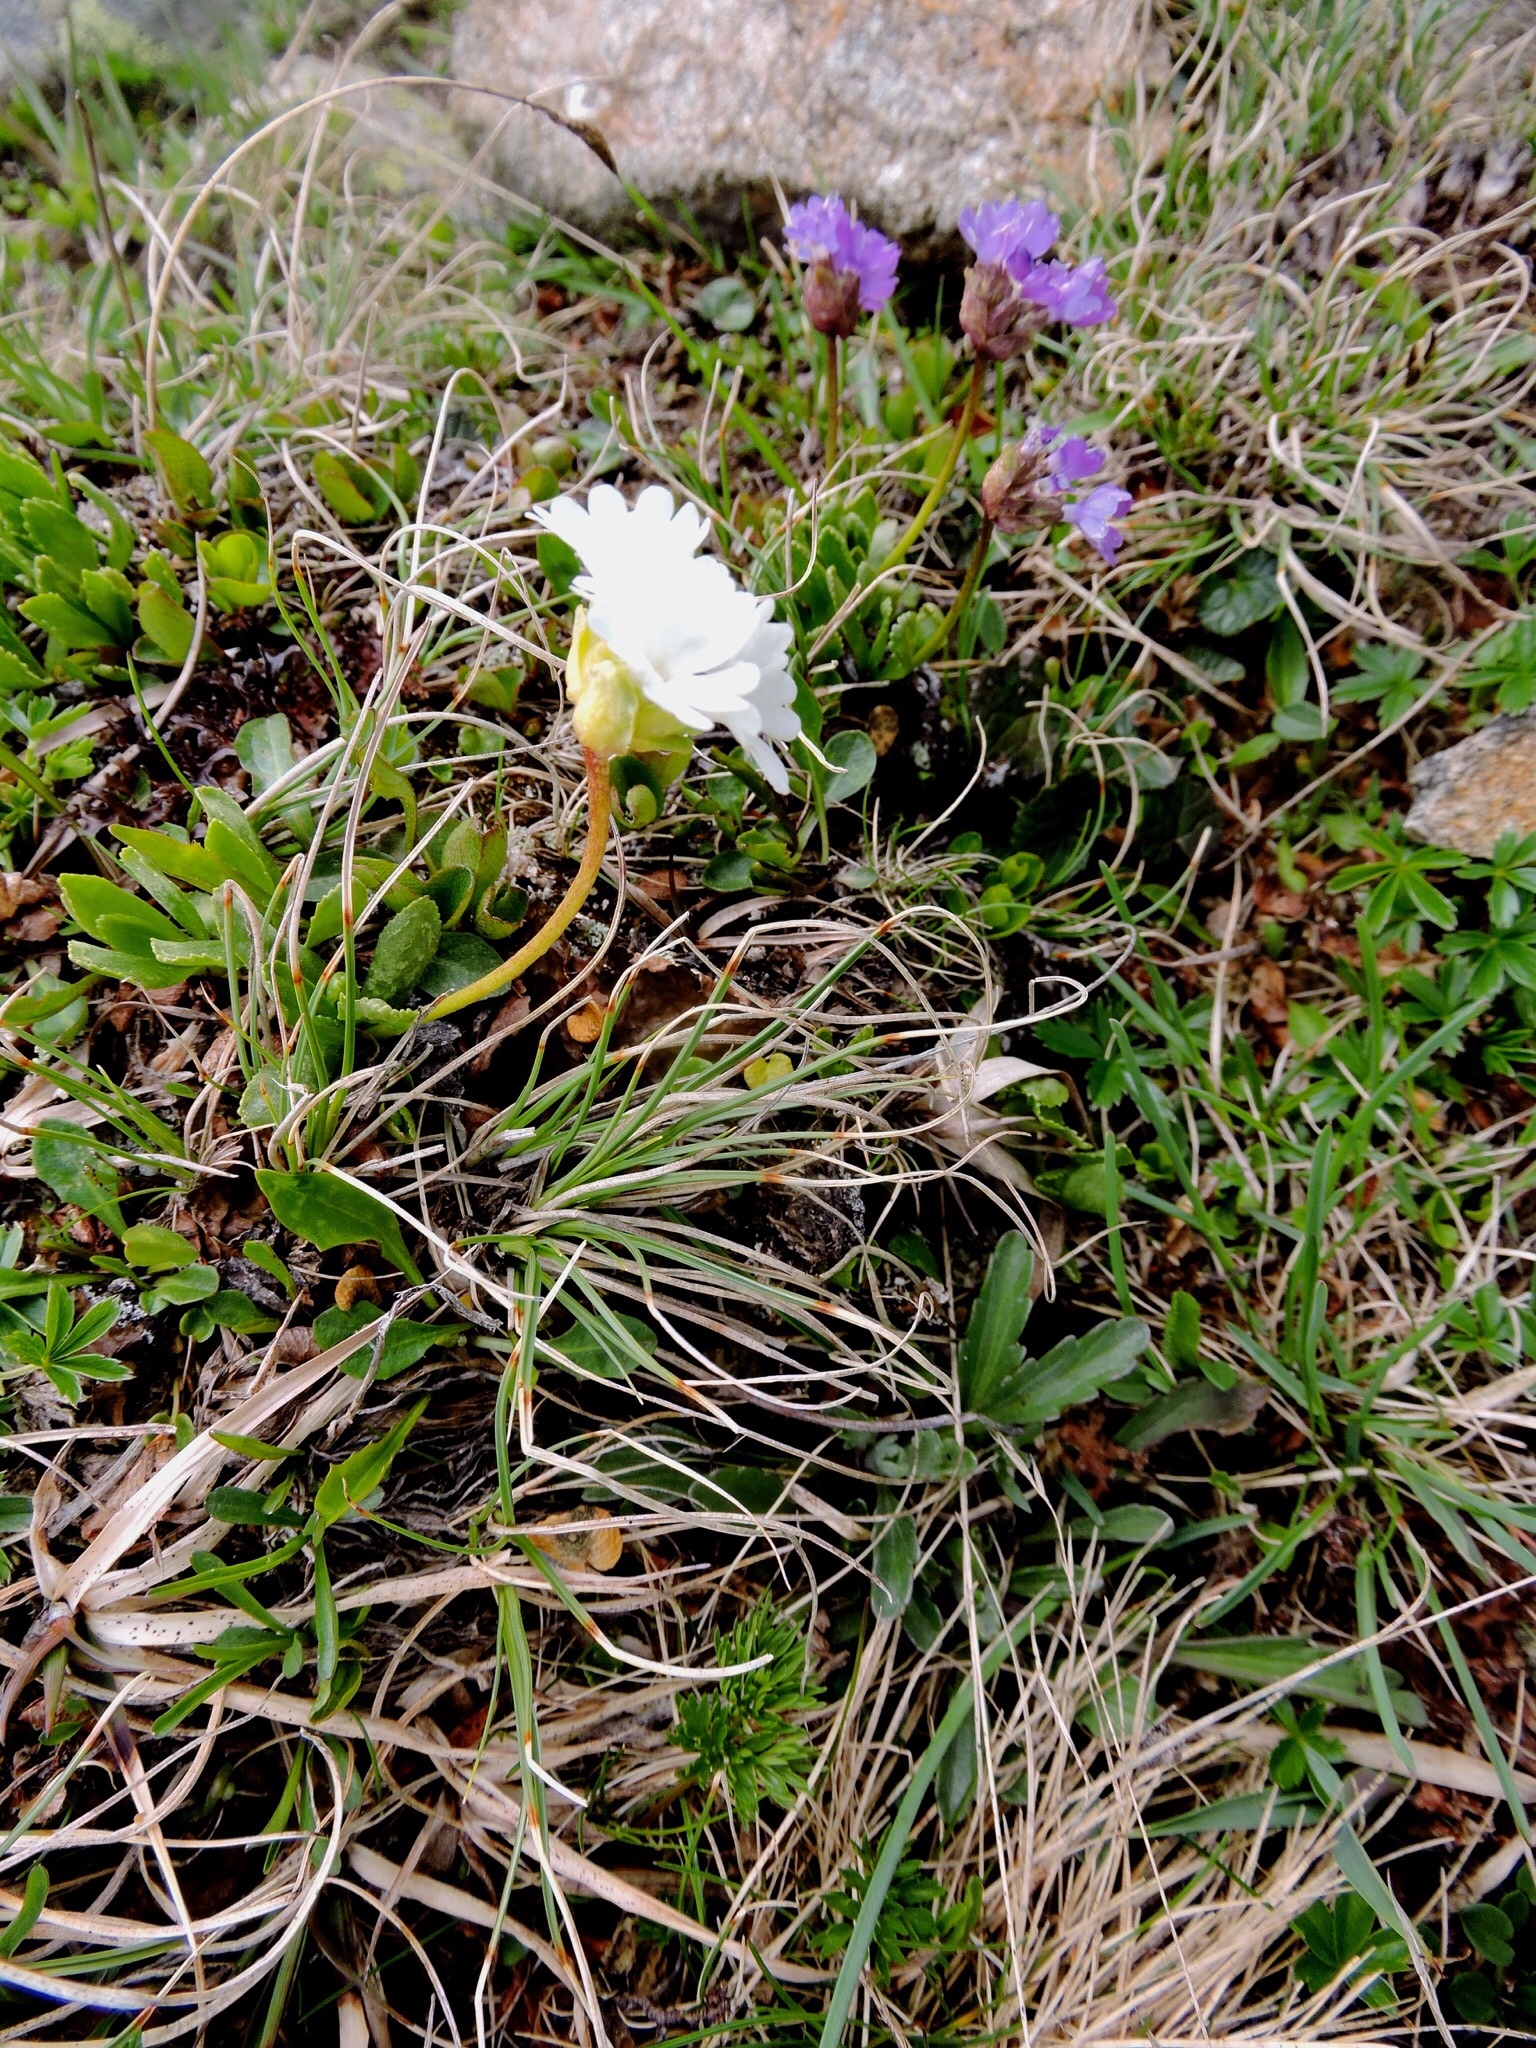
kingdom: Plantae
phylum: Tracheophyta
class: Magnoliopsida
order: Ericales
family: Primulaceae
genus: Primula
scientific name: Primula glutinosa
